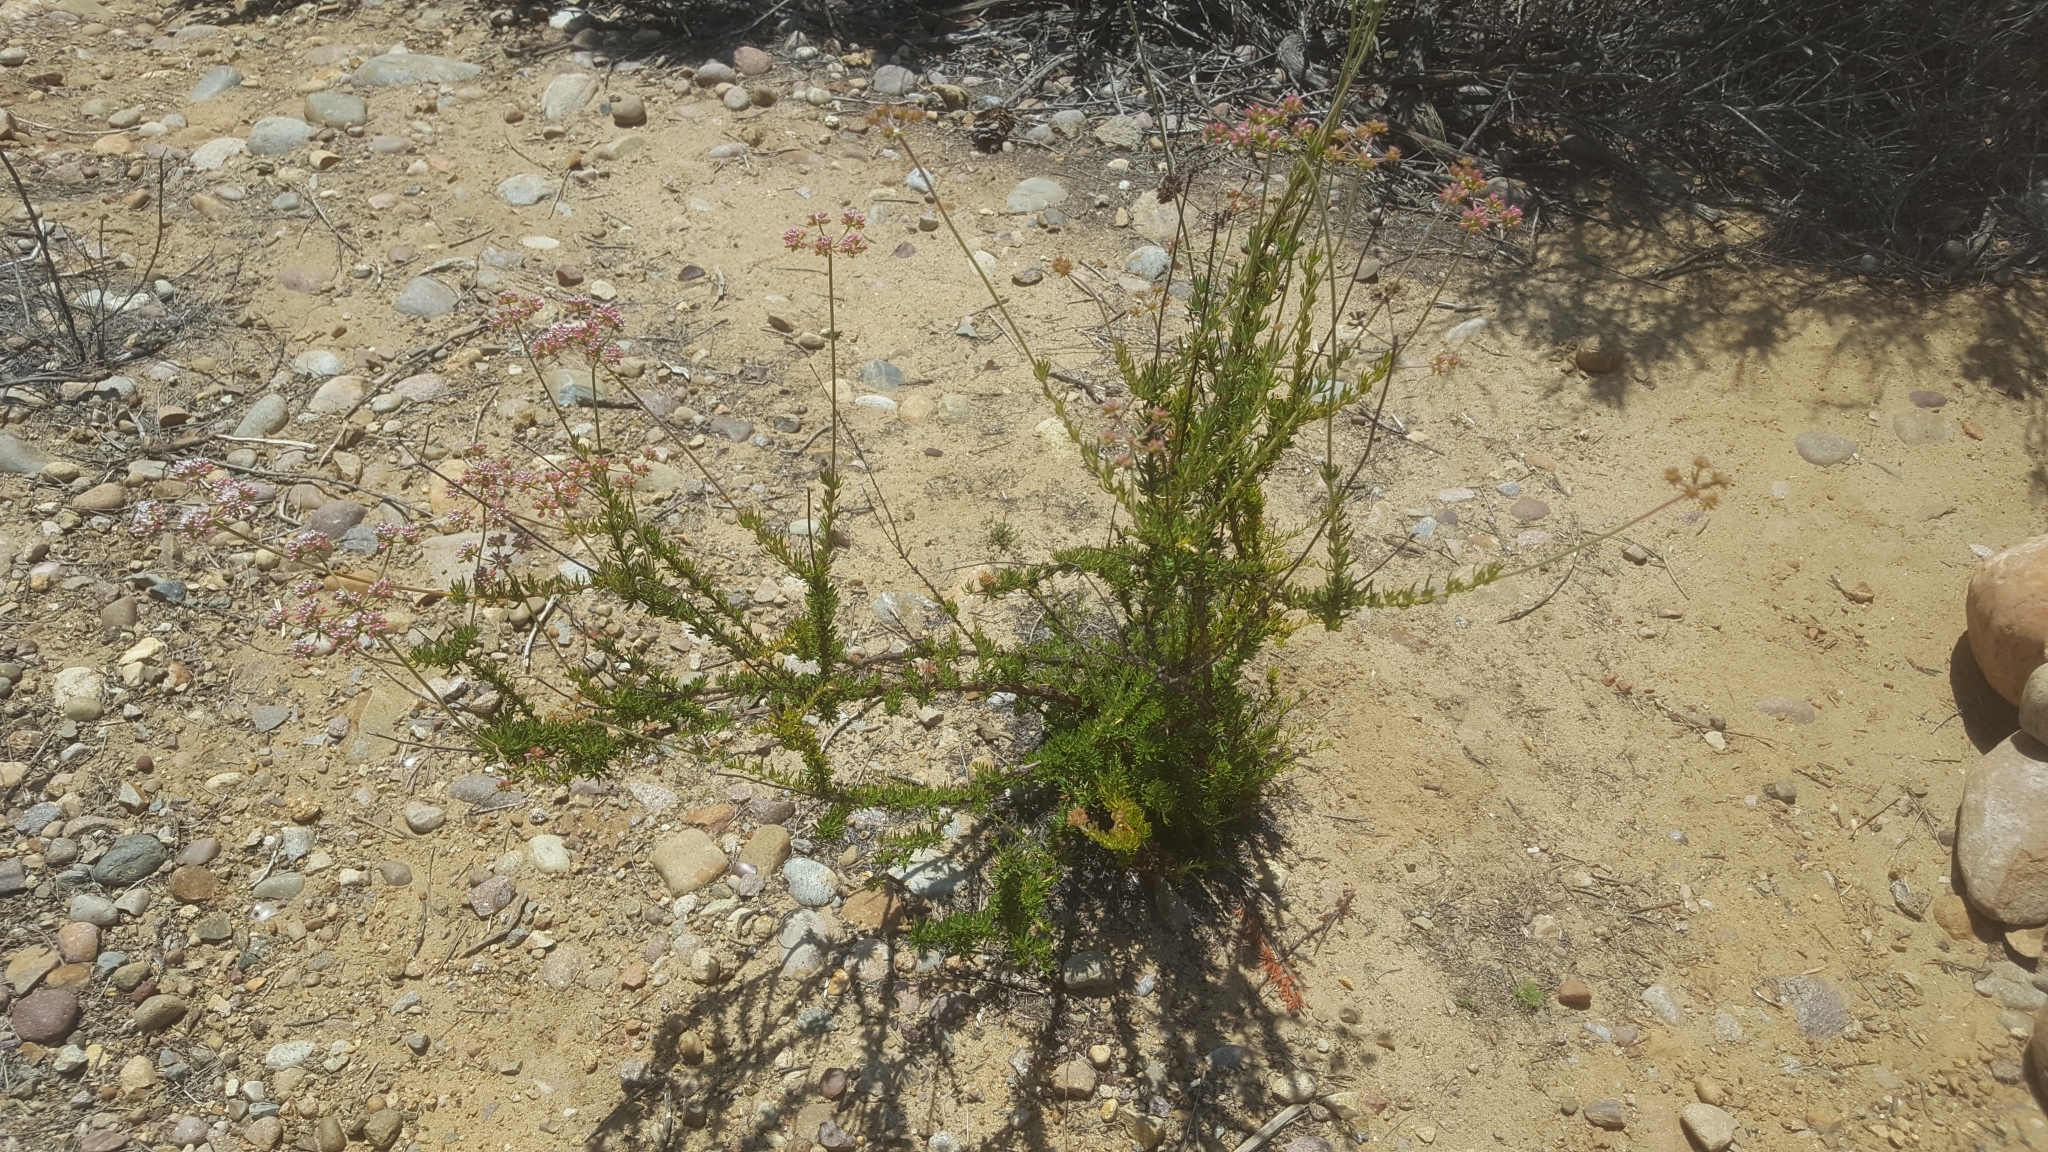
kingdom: Plantae
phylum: Tracheophyta
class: Magnoliopsida
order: Caryophyllales
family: Polygonaceae
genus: Eriogonum
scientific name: Eriogonum fasciculatum
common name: California wild buckwheat
